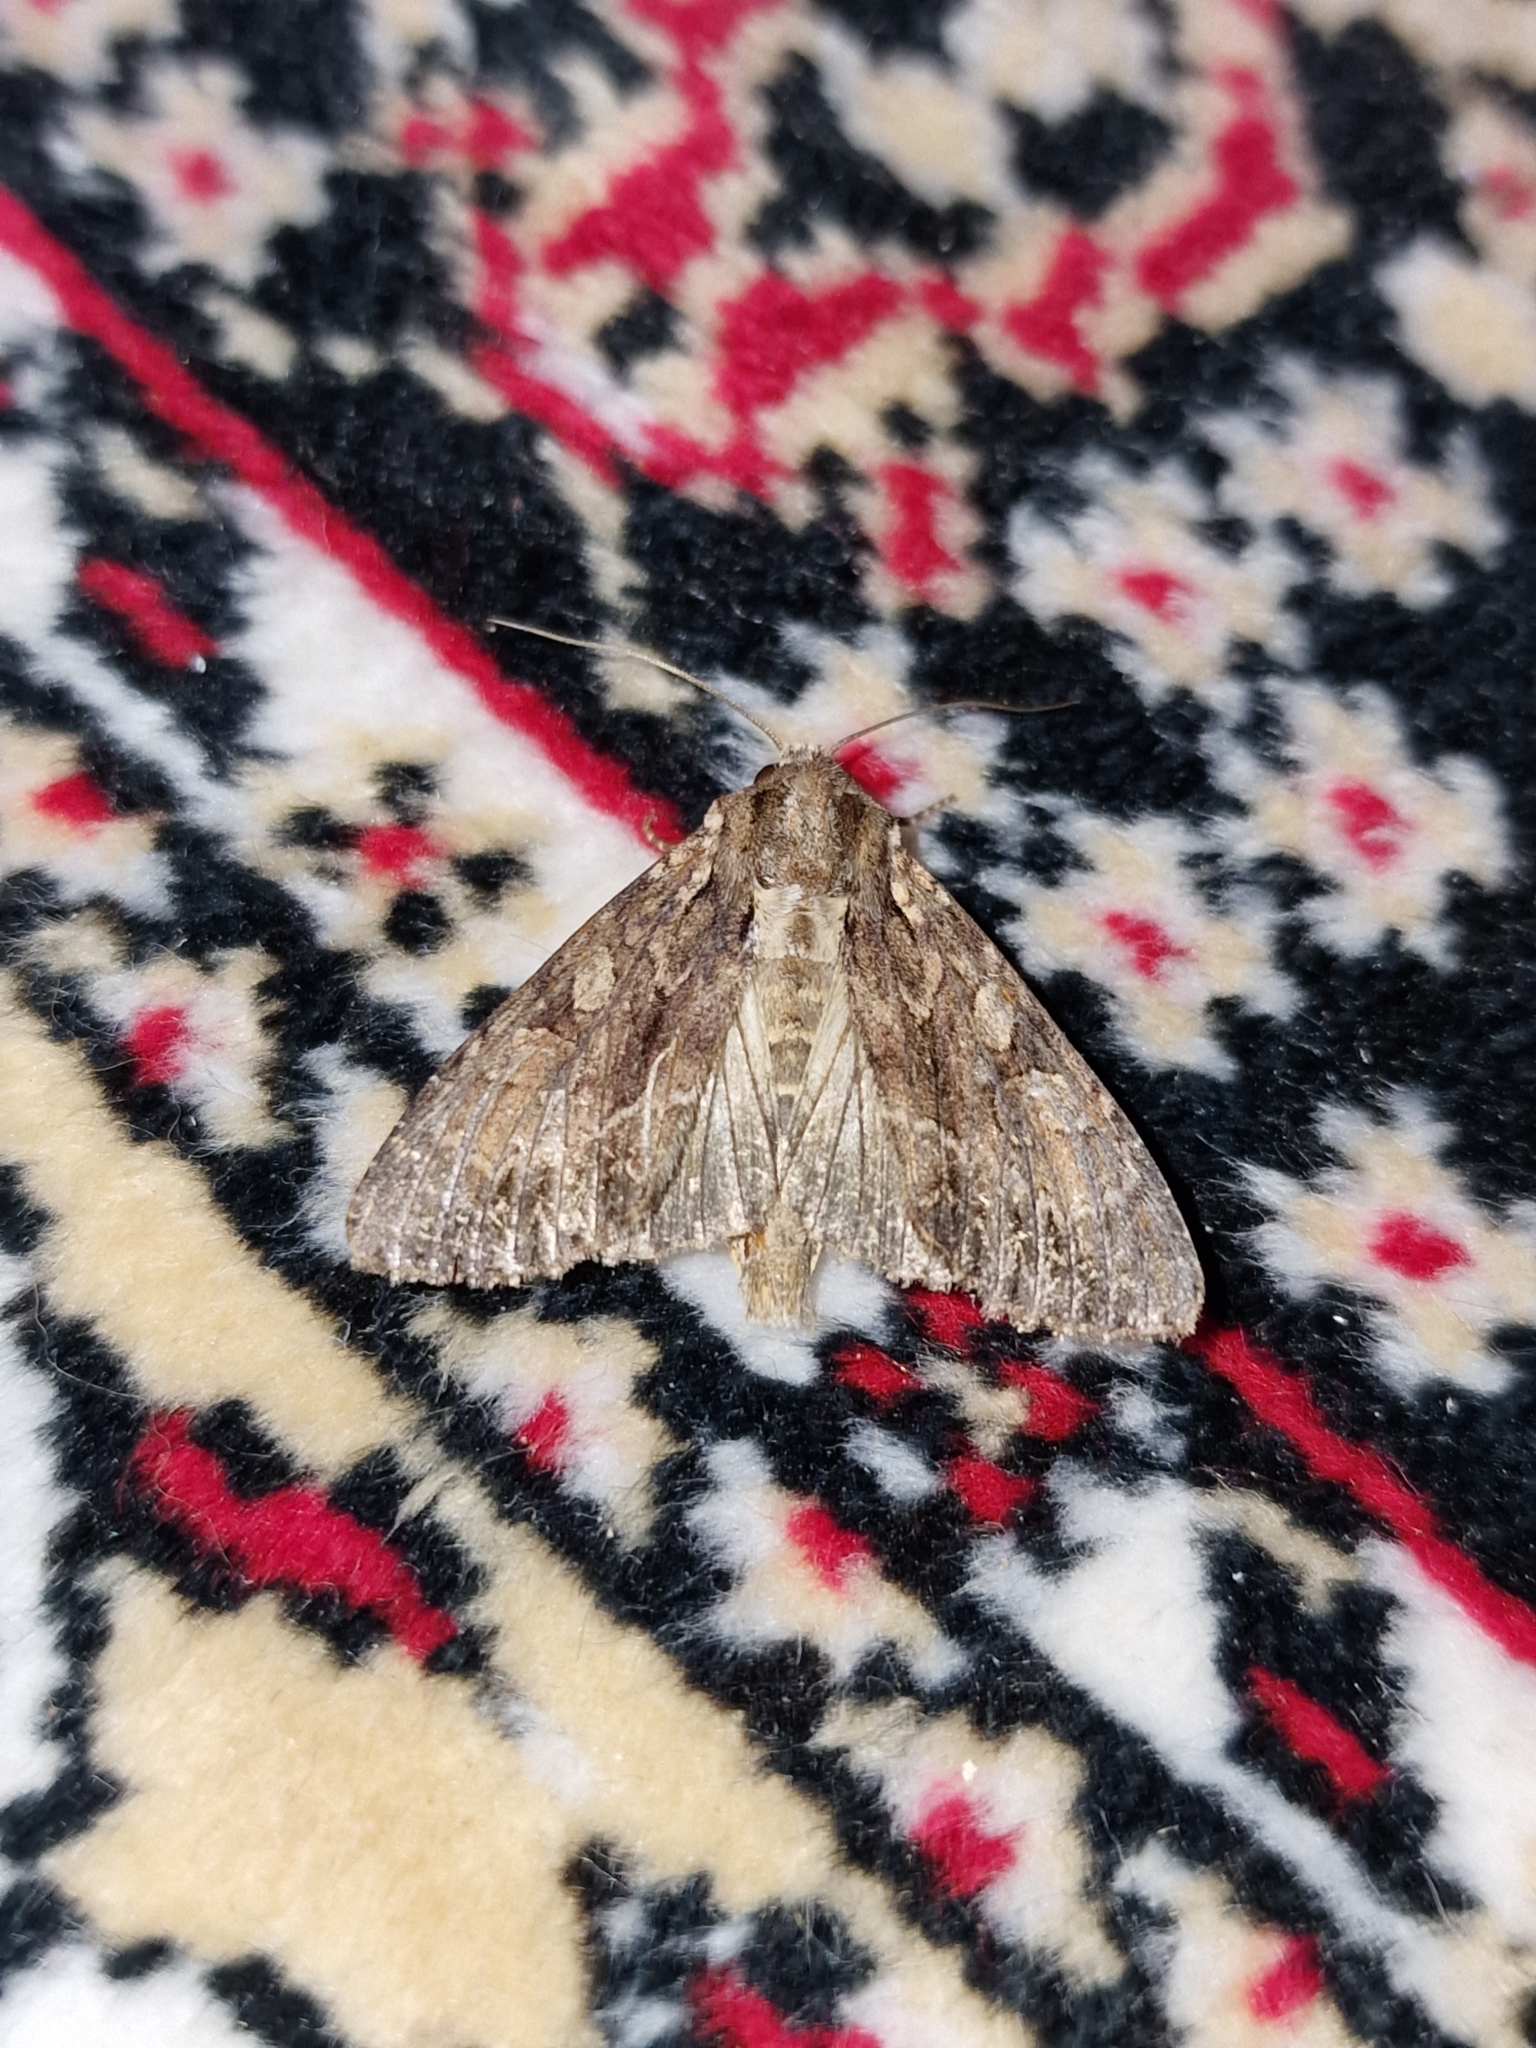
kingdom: Animalia
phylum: Arthropoda
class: Insecta
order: Lepidoptera
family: Noctuidae
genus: Apamea
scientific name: Apamea monoglypha
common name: Dark arches
